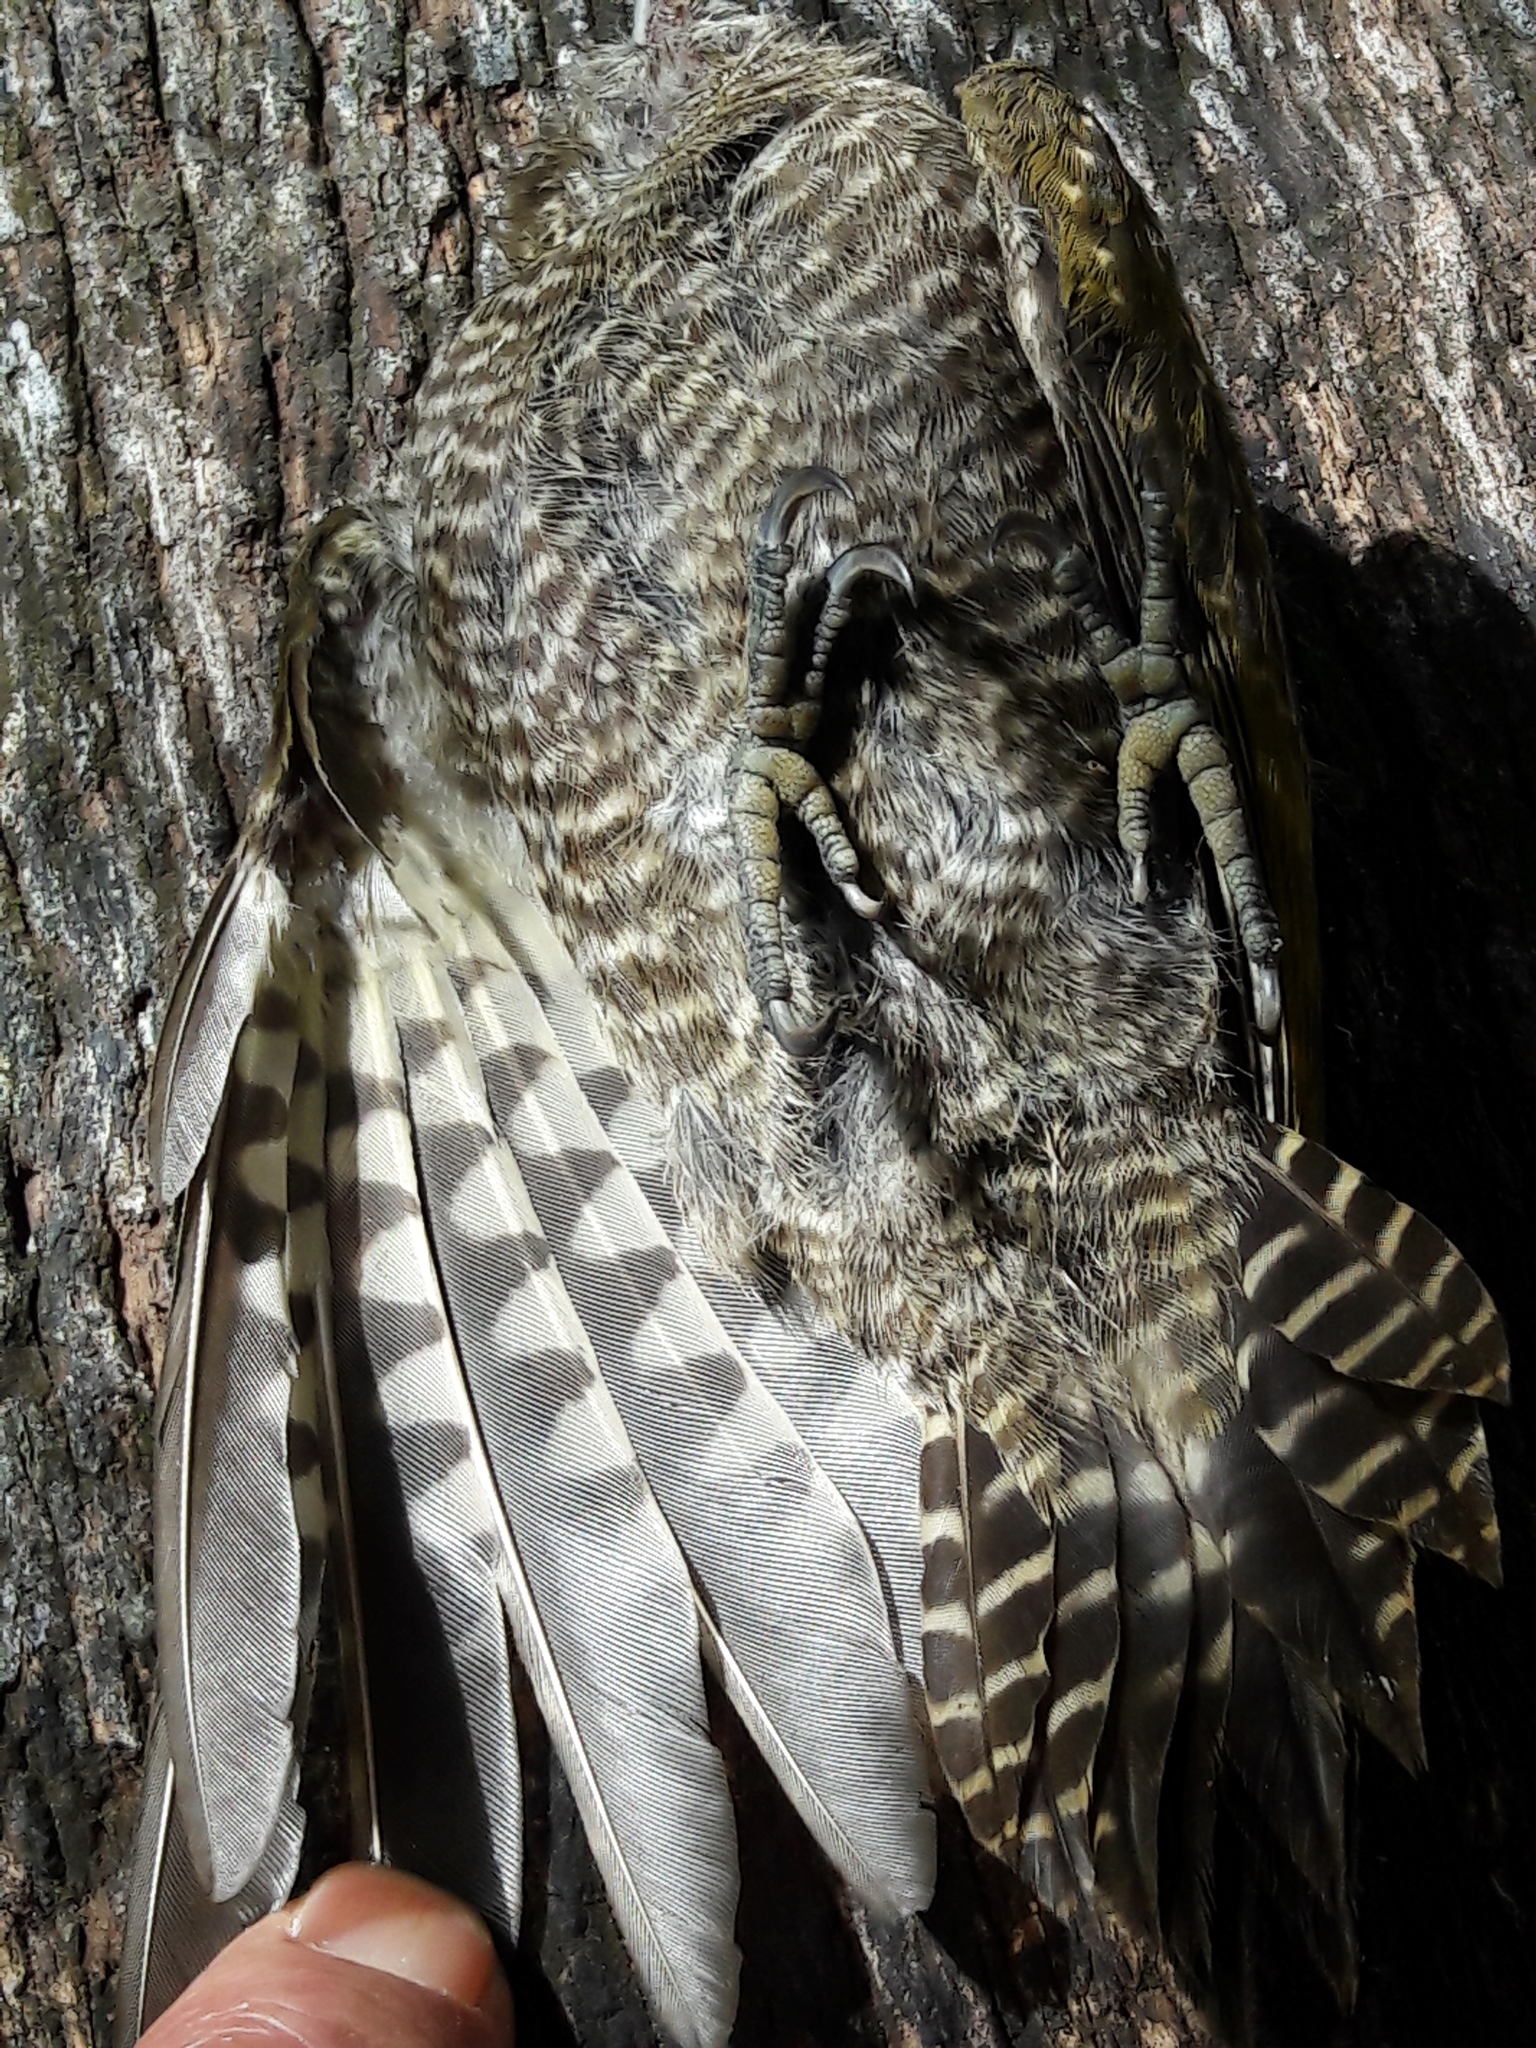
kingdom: Animalia
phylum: Chordata
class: Aves
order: Piciformes
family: Picidae
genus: Veniliornis
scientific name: Veniliornis passerinus
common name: Little woodpecker
